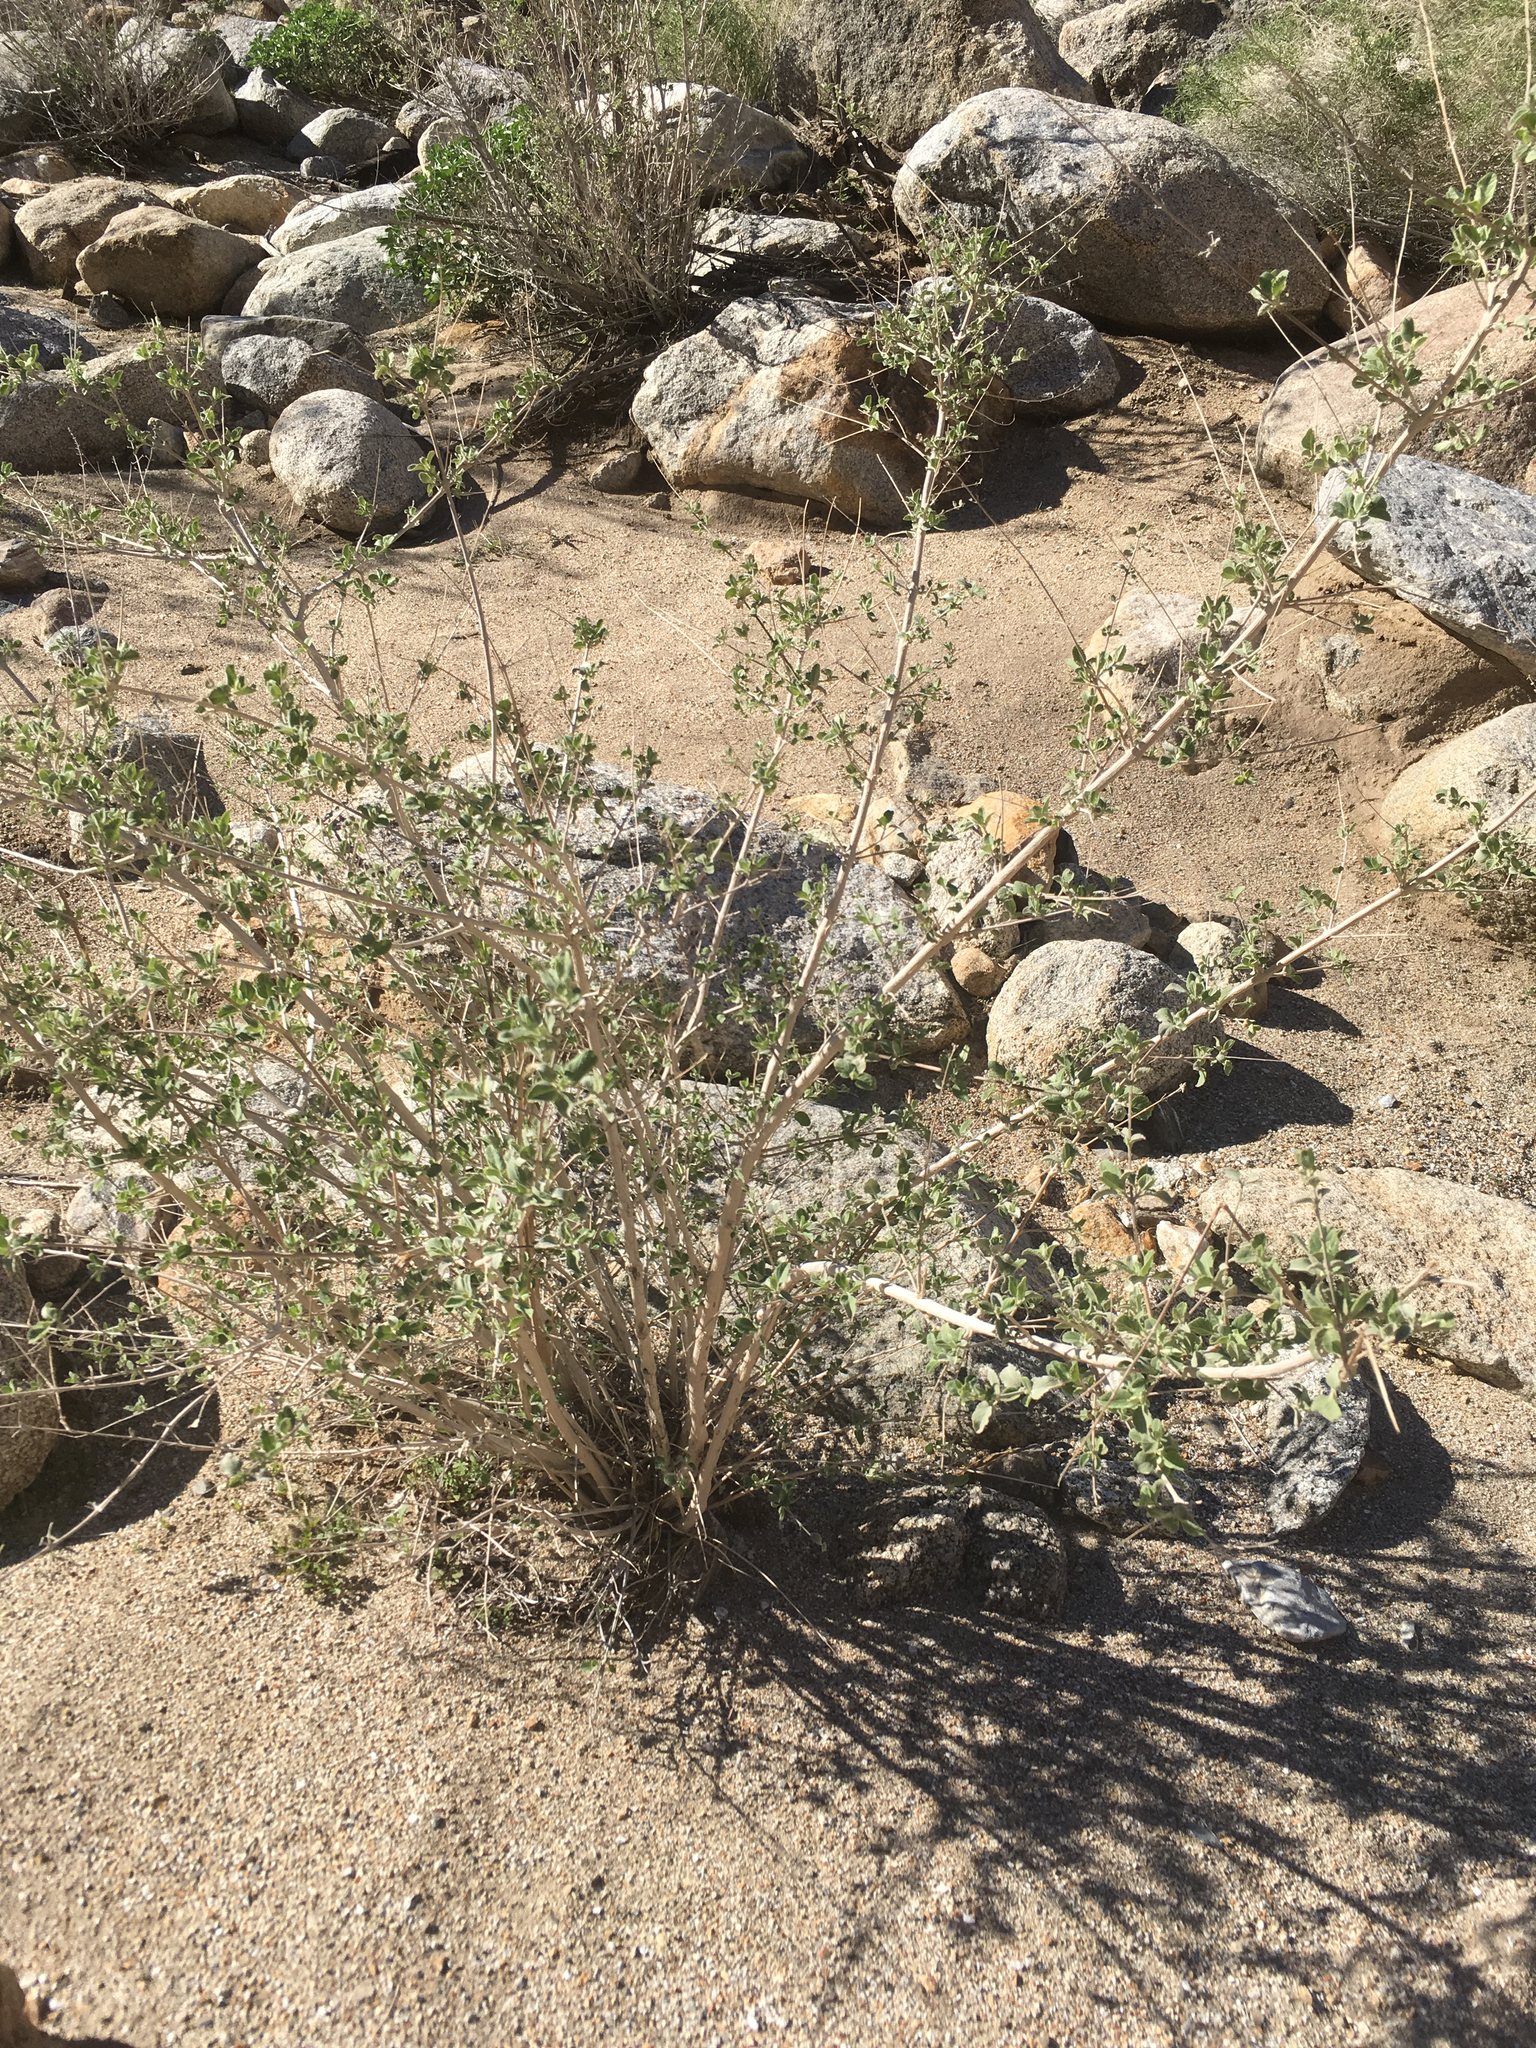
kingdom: Plantae
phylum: Tracheophyta
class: Magnoliopsida
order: Lamiales
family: Lamiaceae
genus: Condea
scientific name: Condea emoryi
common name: Chia
